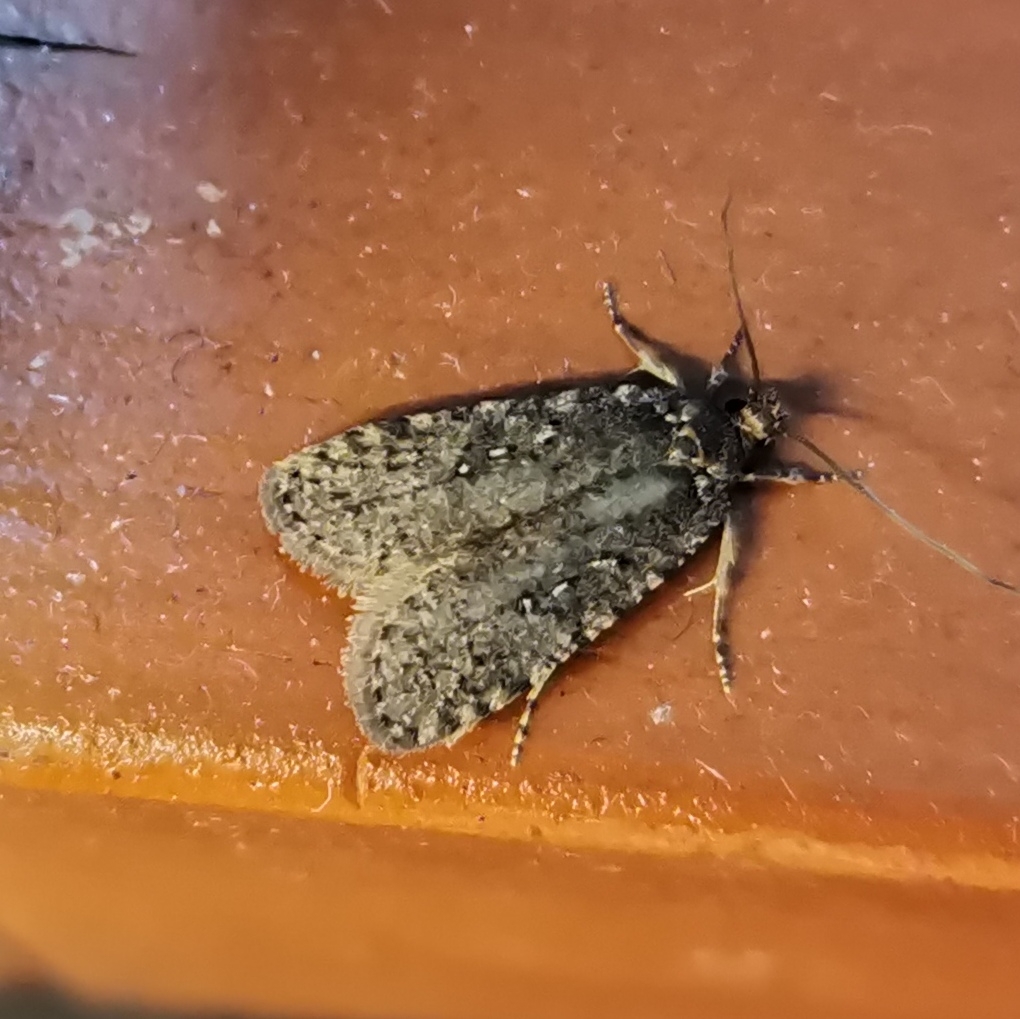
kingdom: Animalia
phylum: Arthropoda
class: Insecta
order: Lepidoptera
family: Depressariidae
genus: Exaeretia
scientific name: Exaeretia ciniflonella
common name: Scotch flat-body
